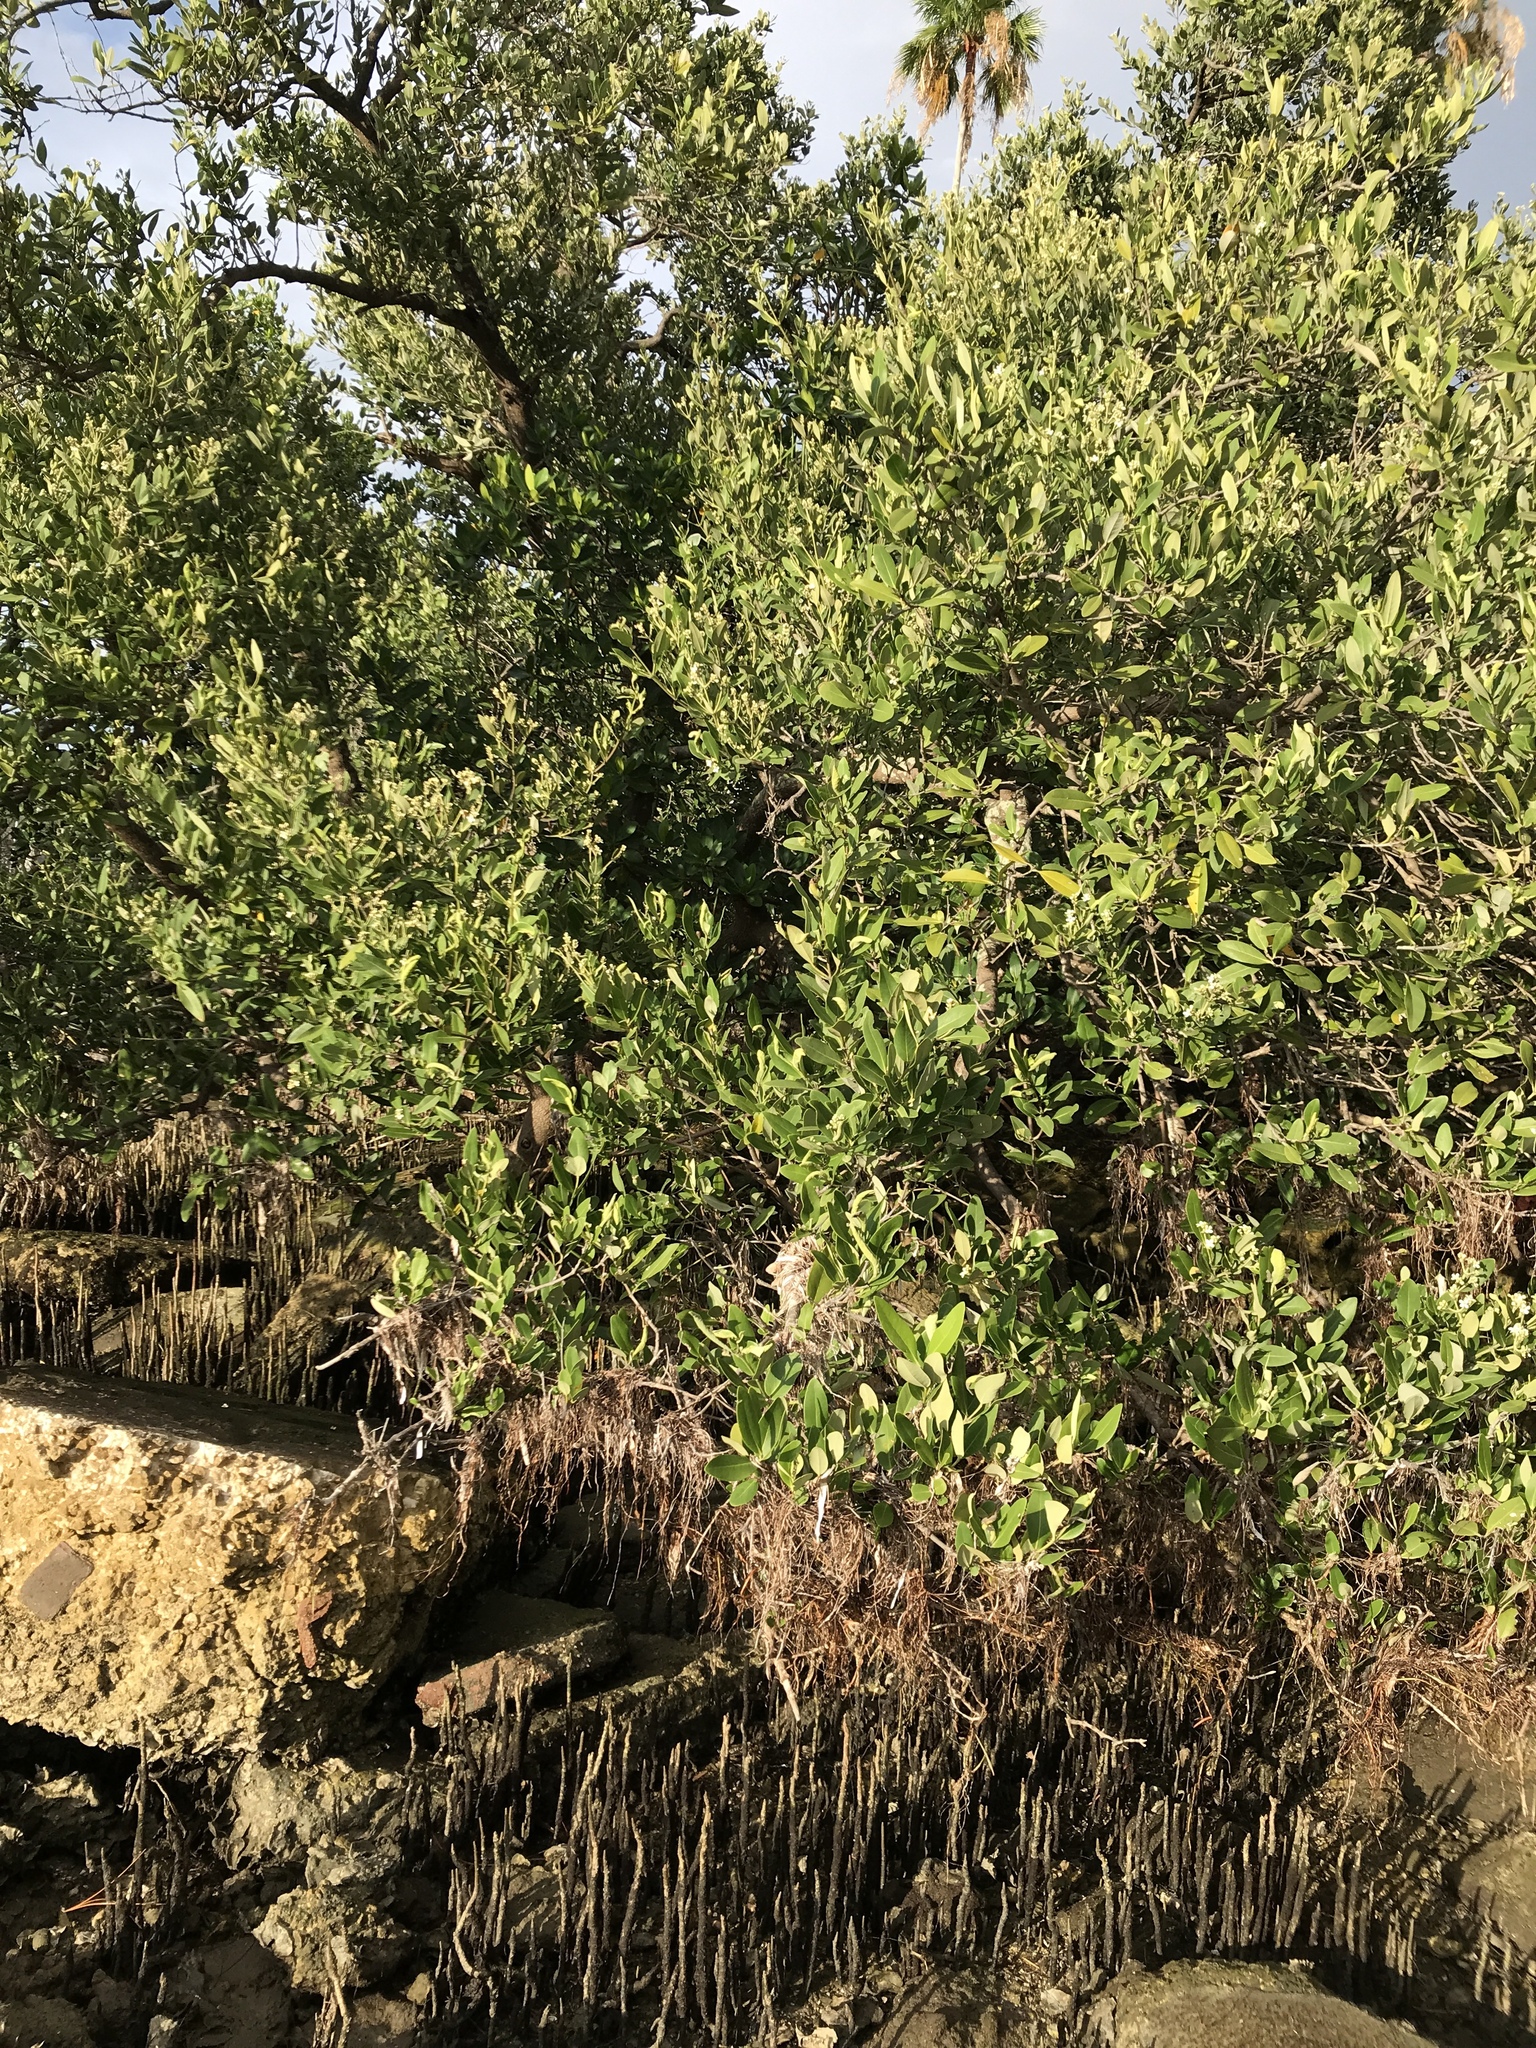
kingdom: Plantae
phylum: Tracheophyta
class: Magnoliopsida
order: Lamiales
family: Acanthaceae
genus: Avicennia
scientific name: Avicennia germinans
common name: Black mangrove
